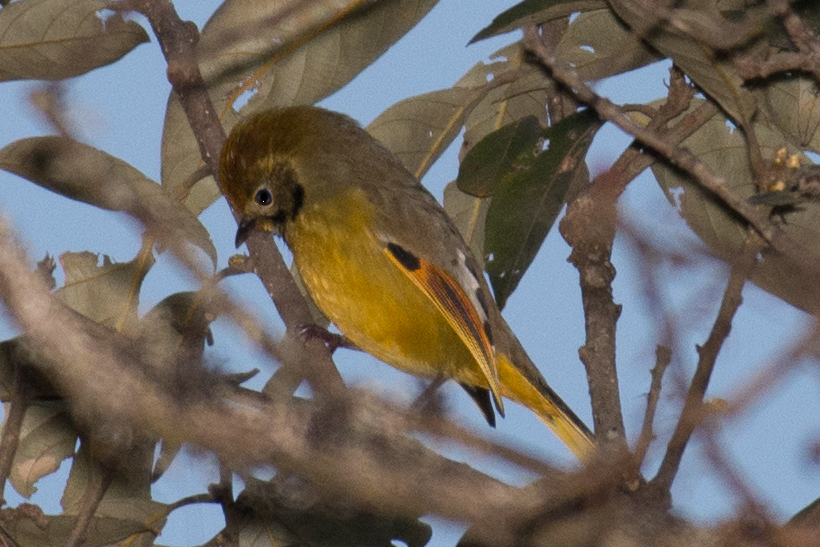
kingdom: Animalia
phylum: Chordata
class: Aves
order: Passeriformes
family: Leiothrichidae
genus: Minla
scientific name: Minla strigula
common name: Chestnut-tailed minla
